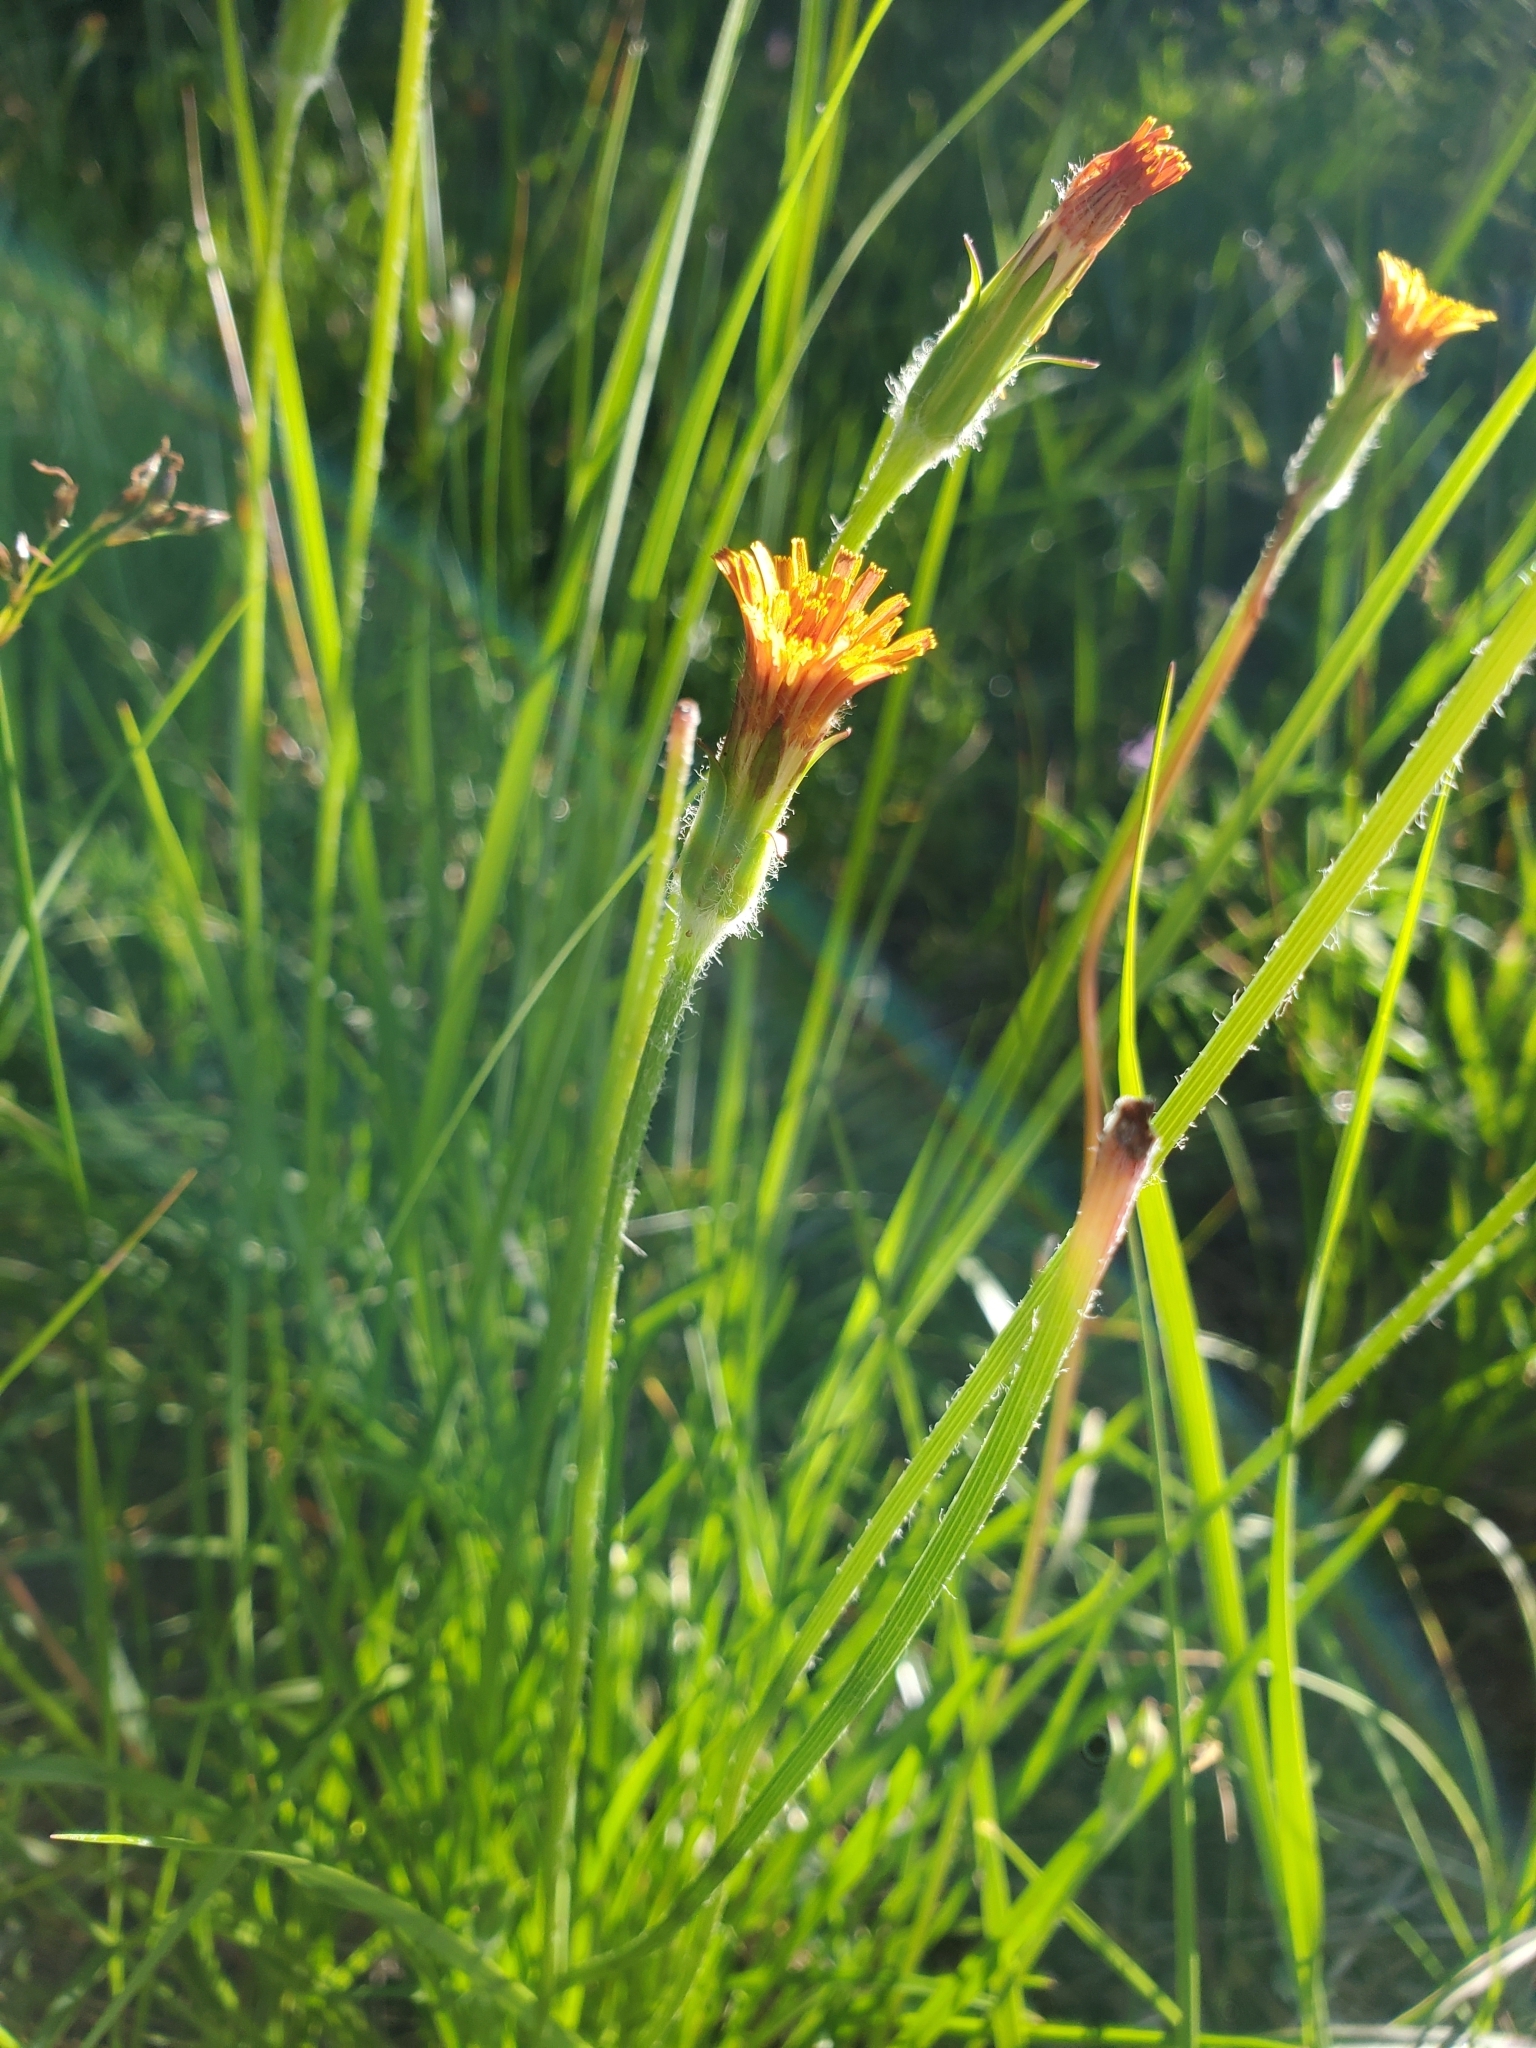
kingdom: Plantae
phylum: Tracheophyta
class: Magnoliopsida
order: Asterales
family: Asteraceae
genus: Agoseris
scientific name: Agoseris aurantiaca
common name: Mountain agoseris
